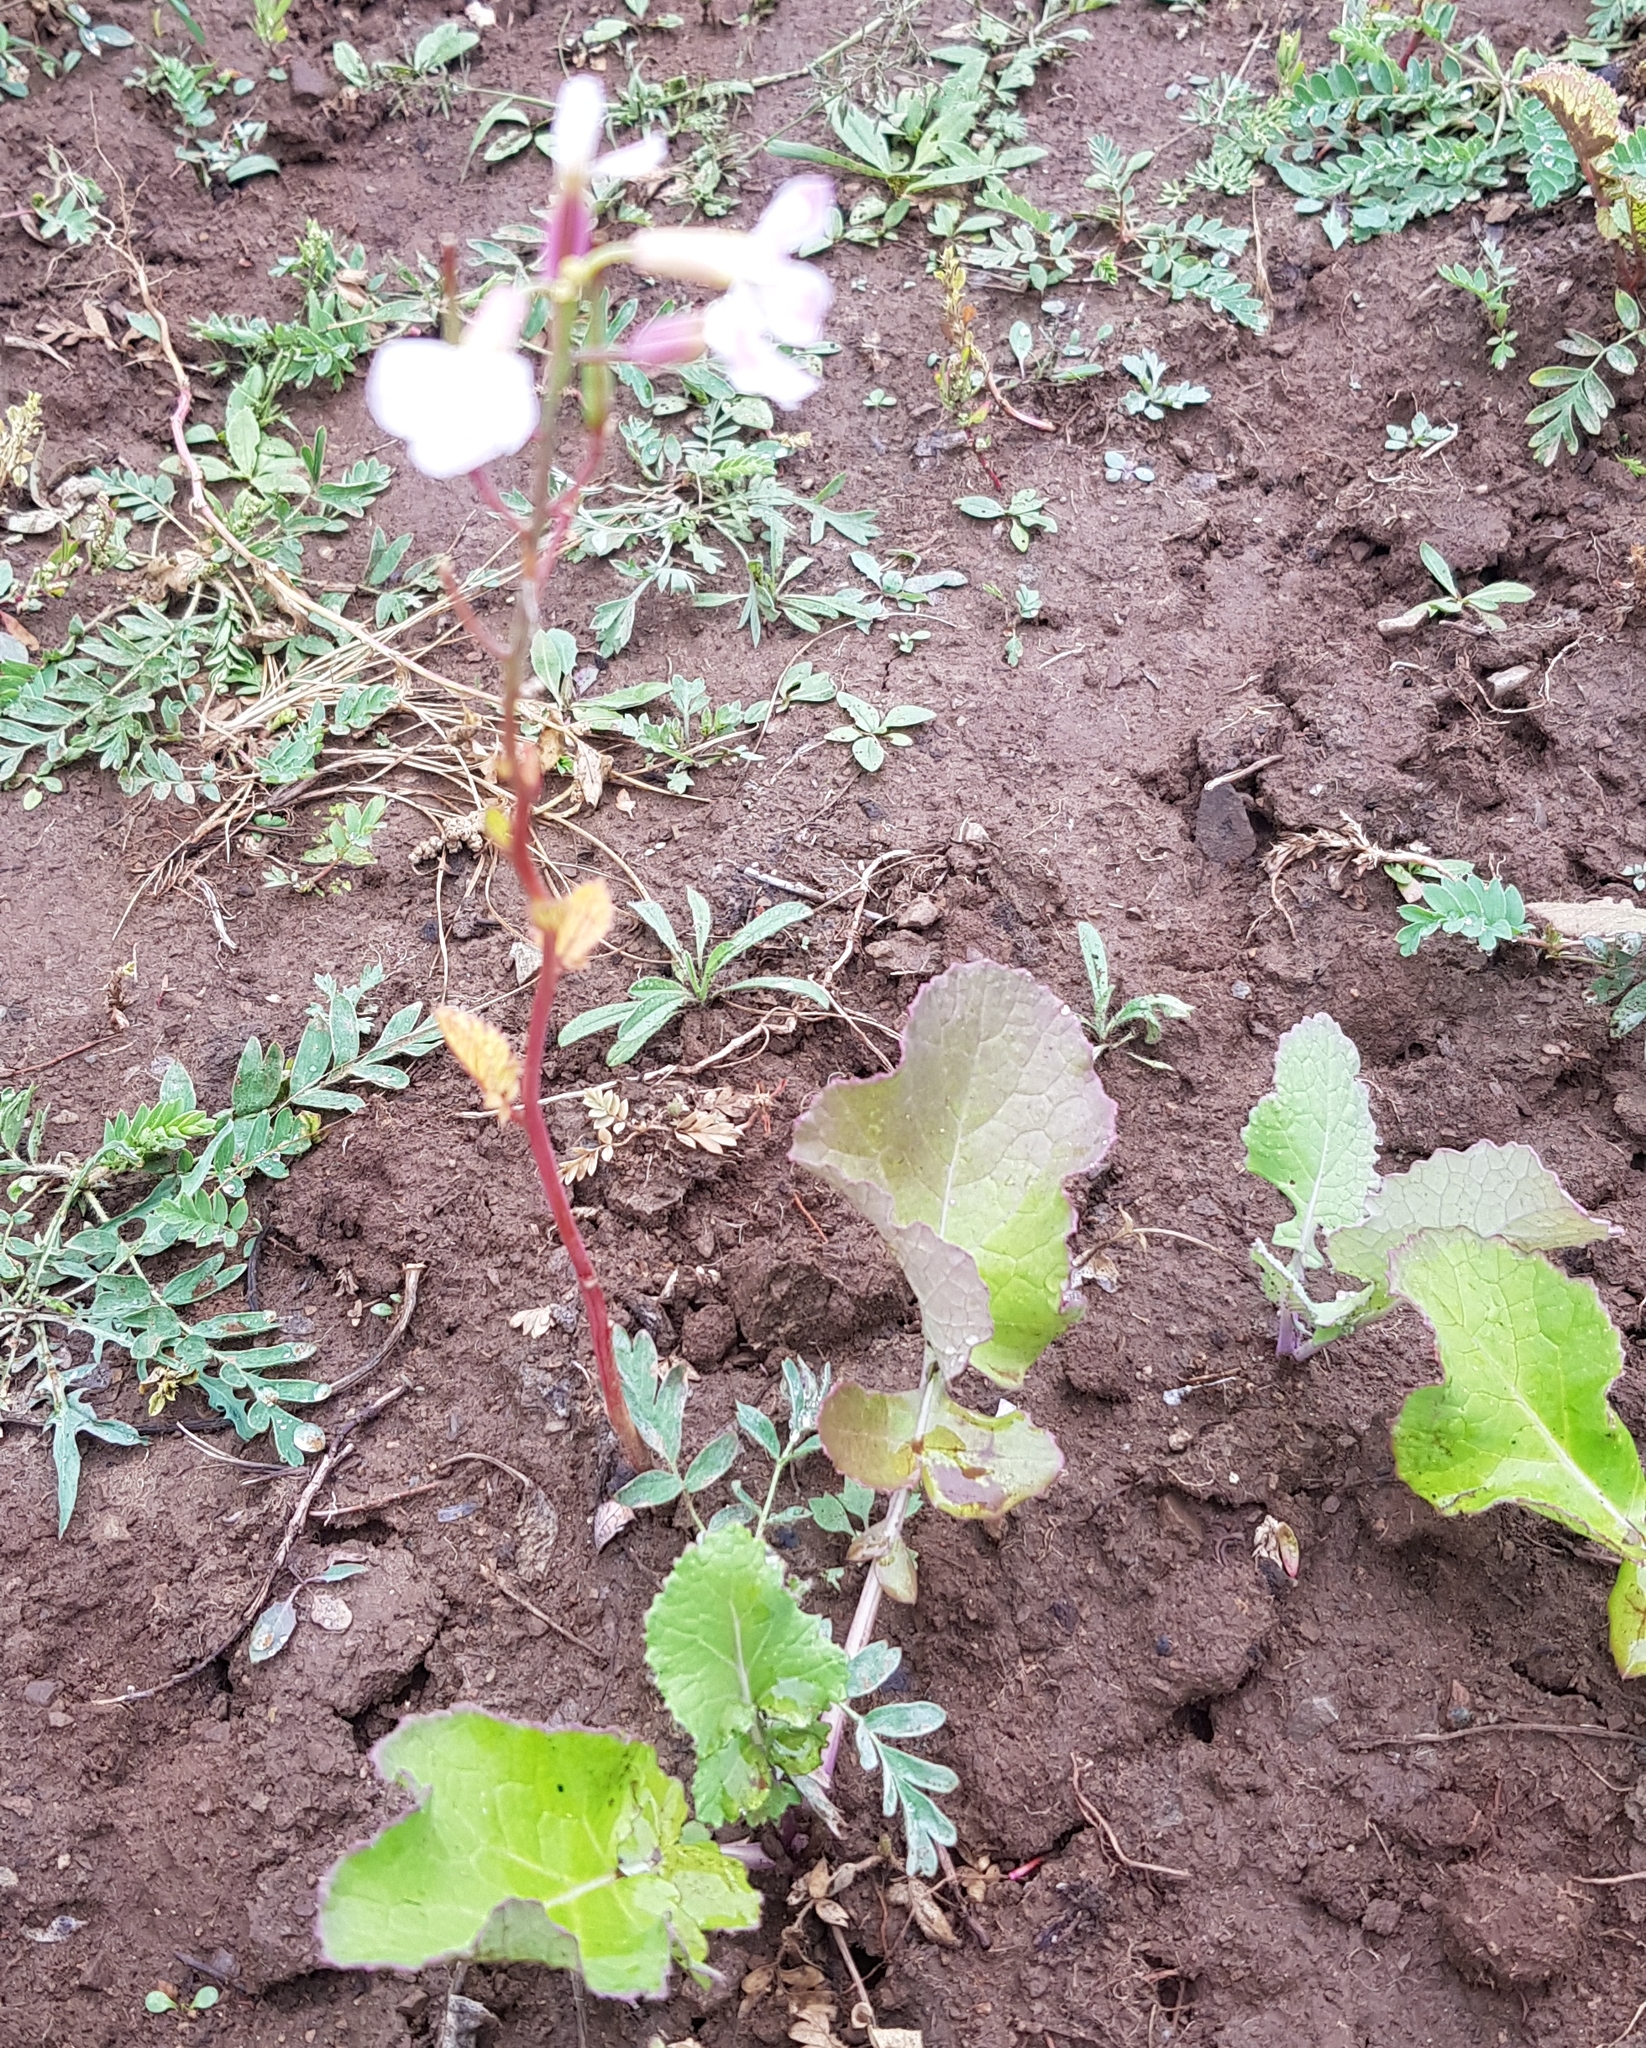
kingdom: Plantae
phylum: Tracheophyta
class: Magnoliopsida
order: Brassicales
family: Brassicaceae
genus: Raphanus
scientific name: Raphanus sativus
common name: Cultivated radish
